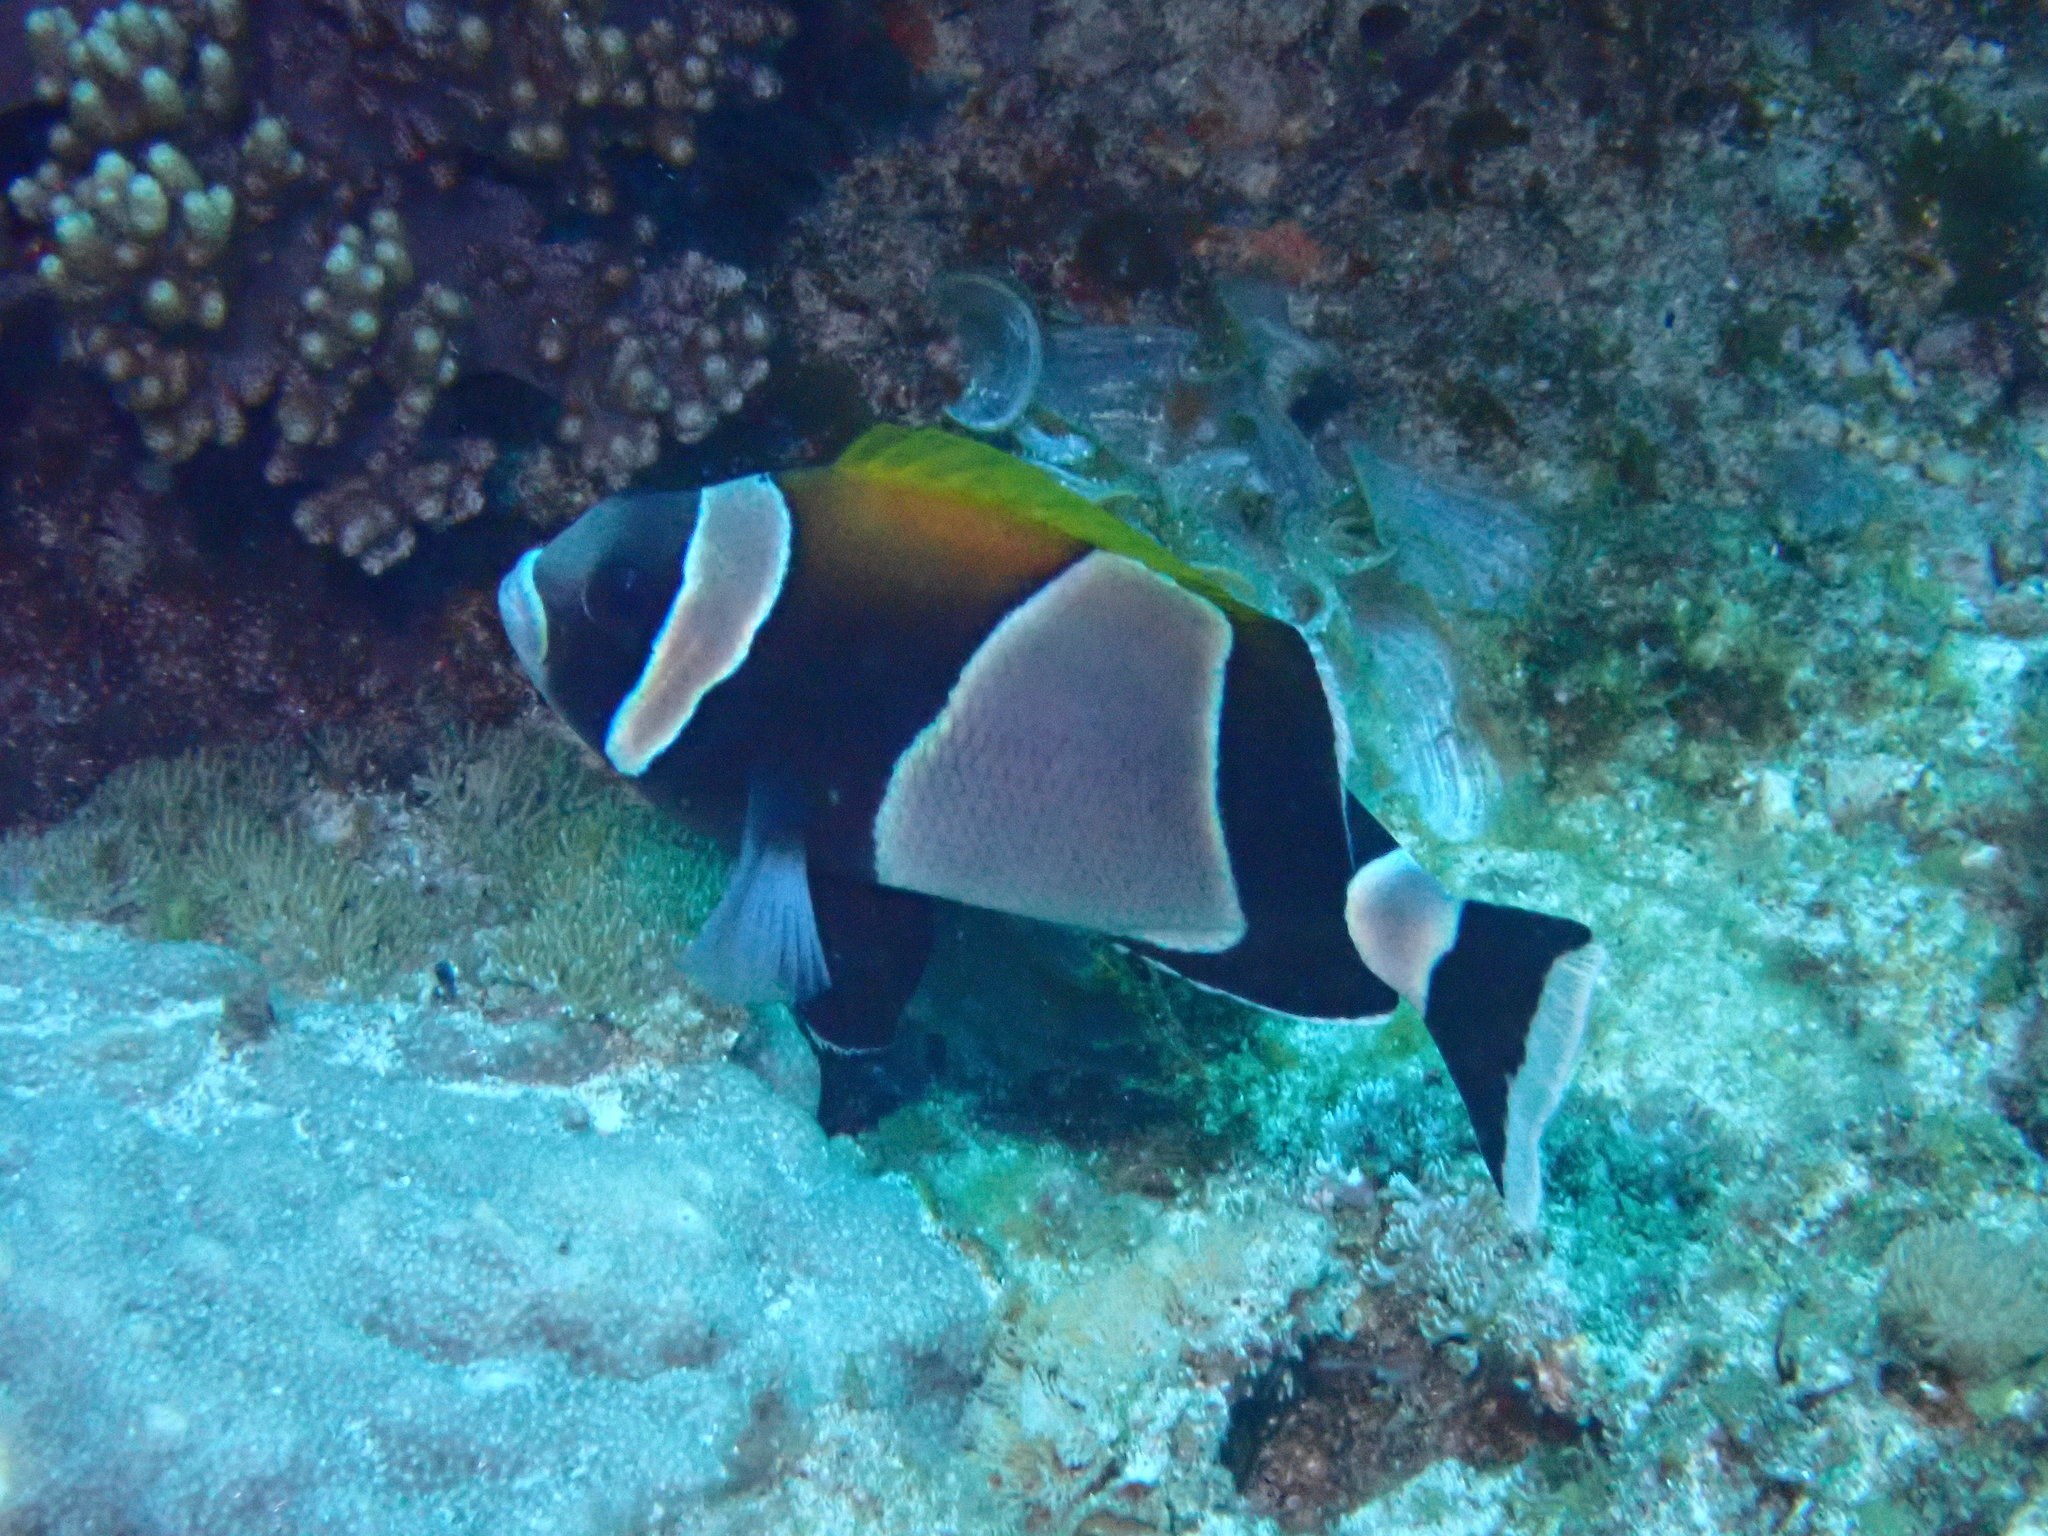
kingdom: Animalia
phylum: Chordata
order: Perciformes
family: Pomacentridae
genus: Amphiprion
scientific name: Amphiprion latezonatus
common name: Wide-band anemonefish
